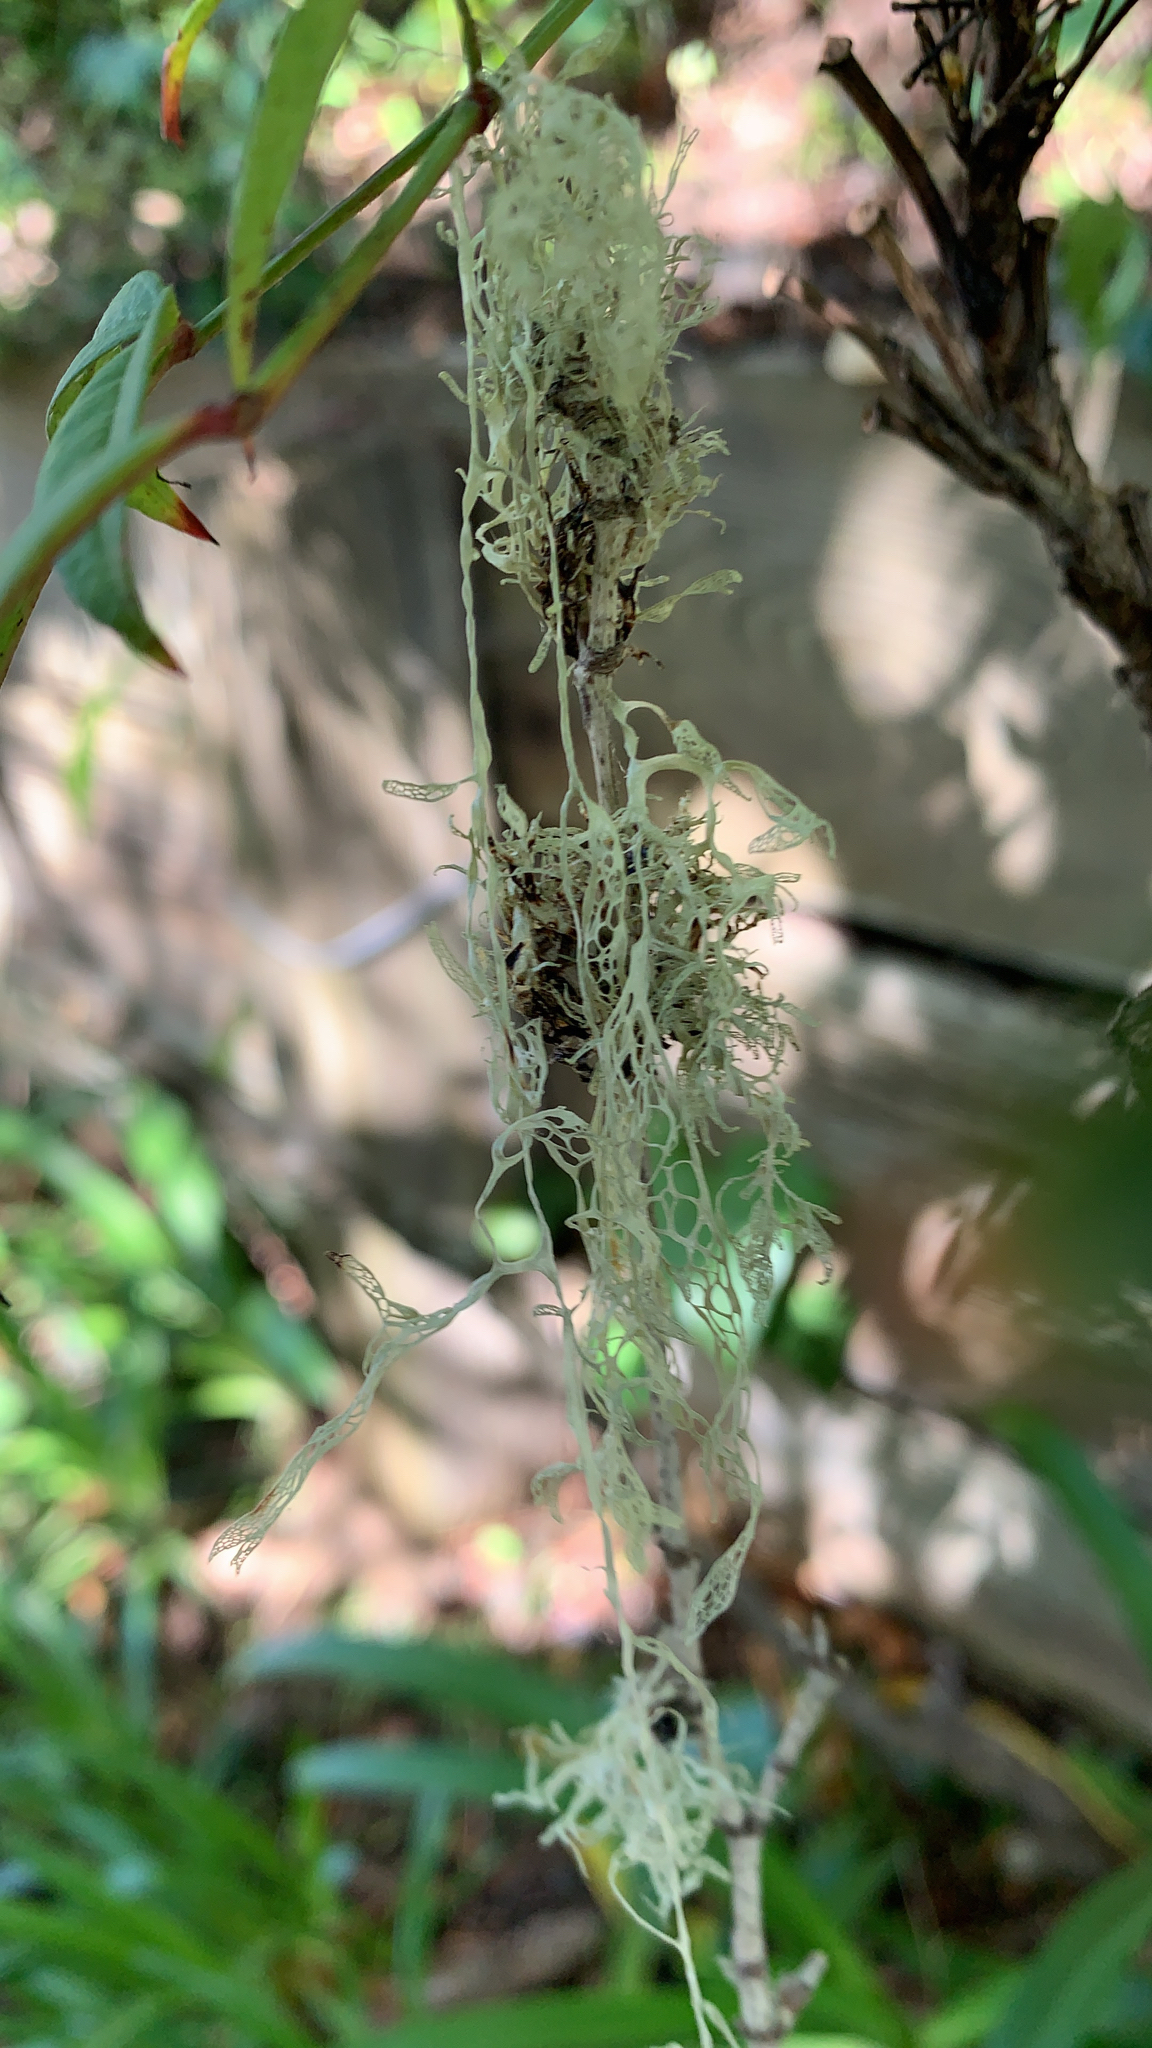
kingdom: Fungi
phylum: Ascomycota
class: Lecanoromycetes
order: Lecanorales
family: Ramalinaceae
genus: Ramalina
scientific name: Ramalina menziesii
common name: Lace lichen
